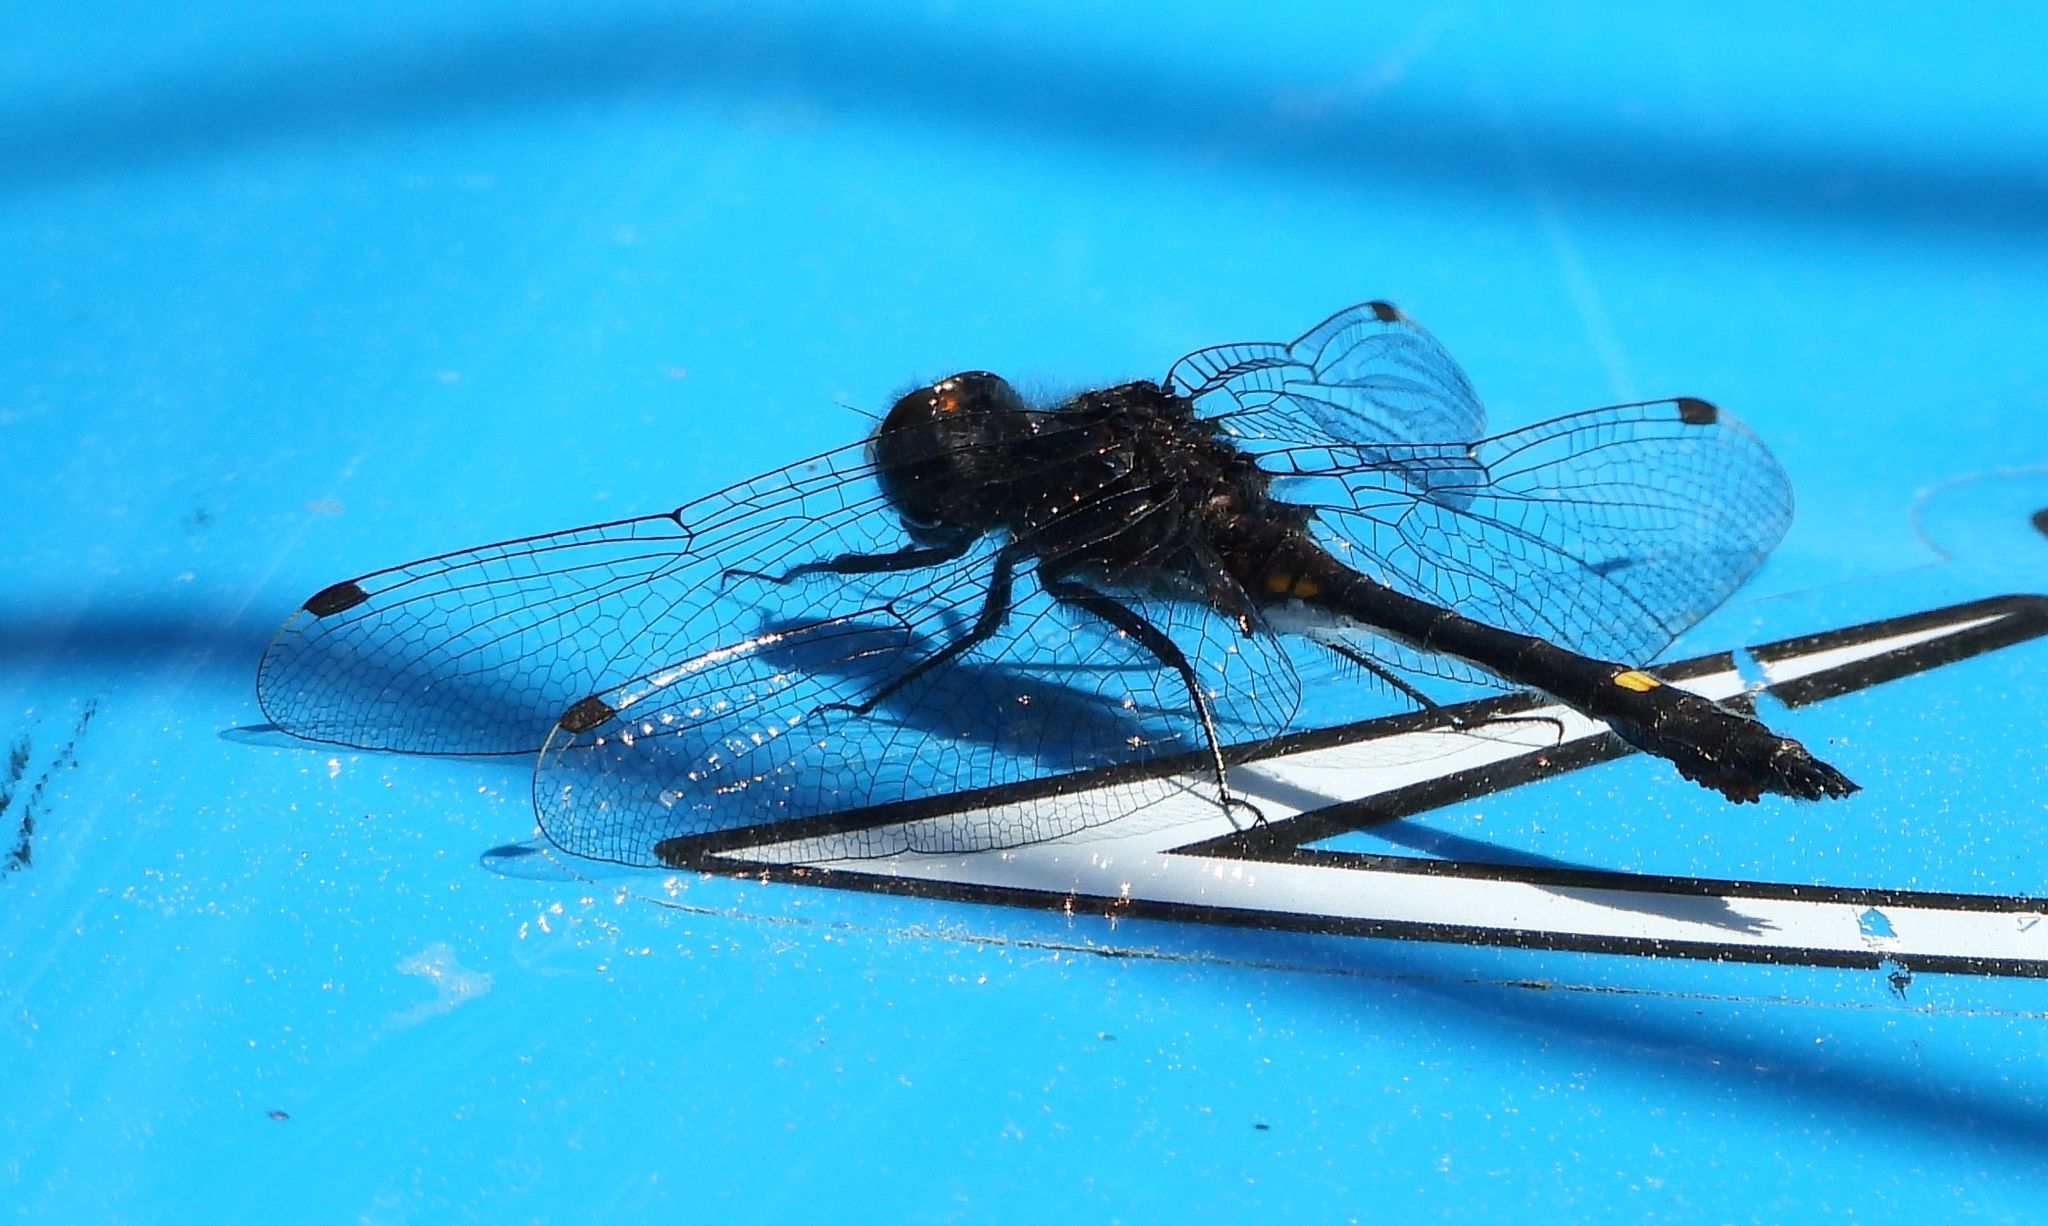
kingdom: Animalia
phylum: Arthropoda
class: Insecta
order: Odonata
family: Libellulidae
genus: Leucorrhinia
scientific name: Leucorrhinia intacta
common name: Dot-tailed whiteface
